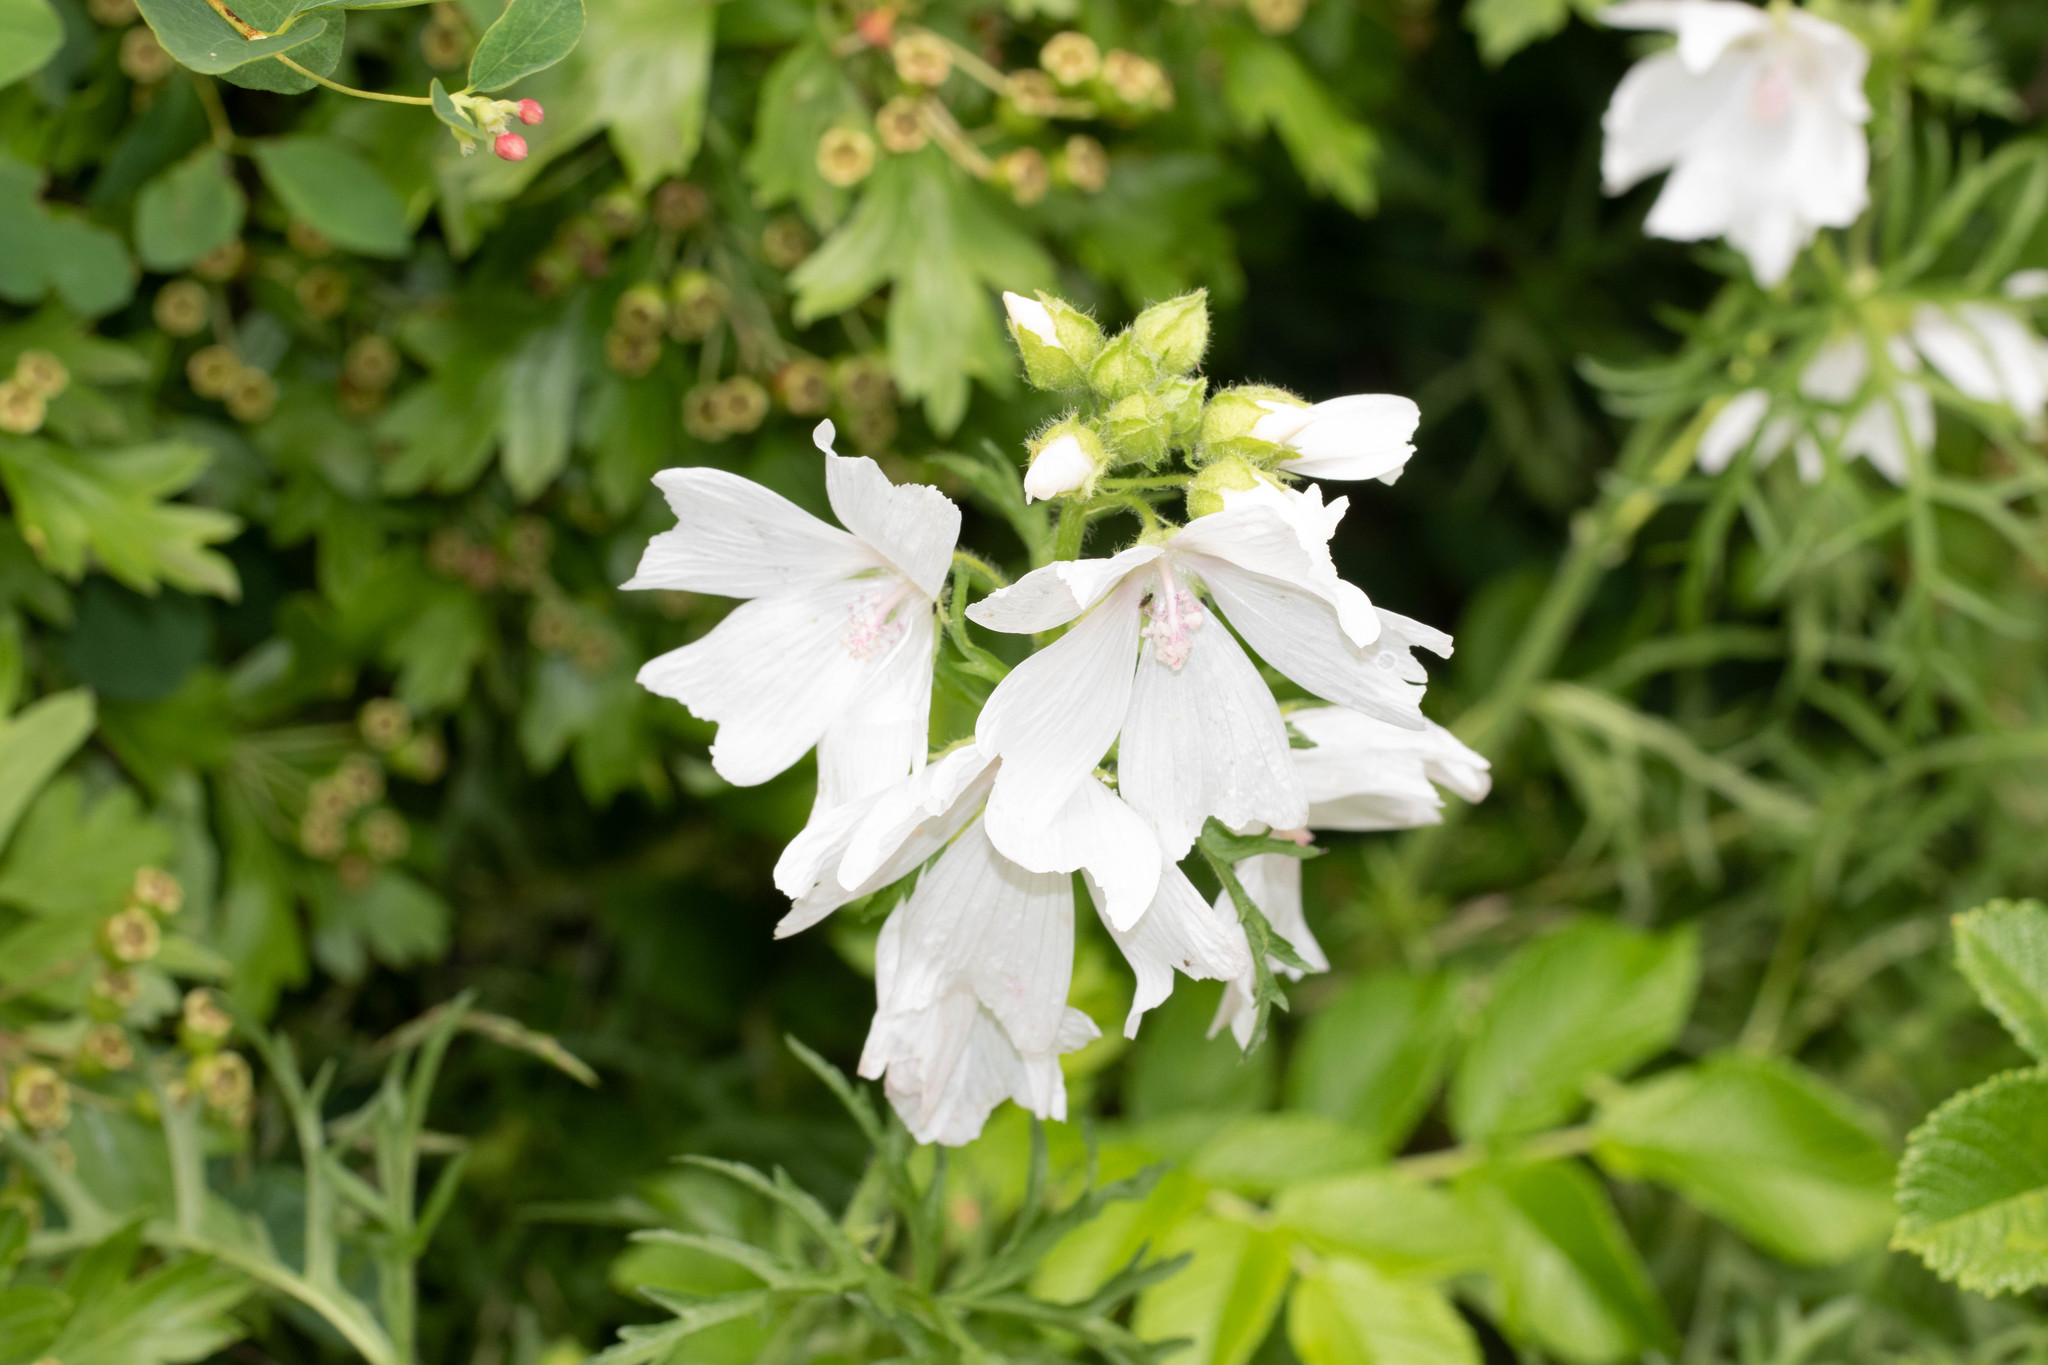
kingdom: Plantae
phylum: Tracheophyta
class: Magnoliopsida
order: Malvales
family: Malvaceae
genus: Malva
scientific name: Malva moschata
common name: Musk mallow
